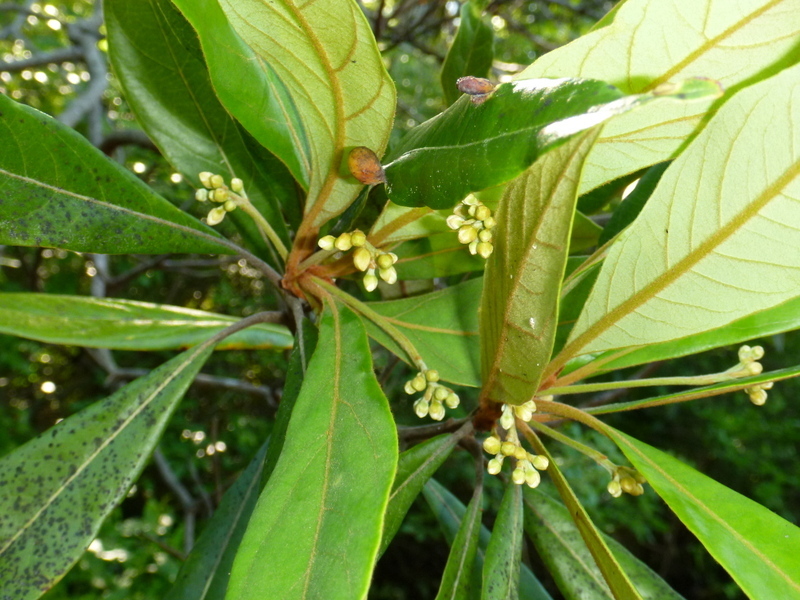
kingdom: Plantae
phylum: Tracheophyta
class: Magnoliopsida
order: Laurales
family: Lauraceae
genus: Persea
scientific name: Persea palustris
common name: Swampbay
